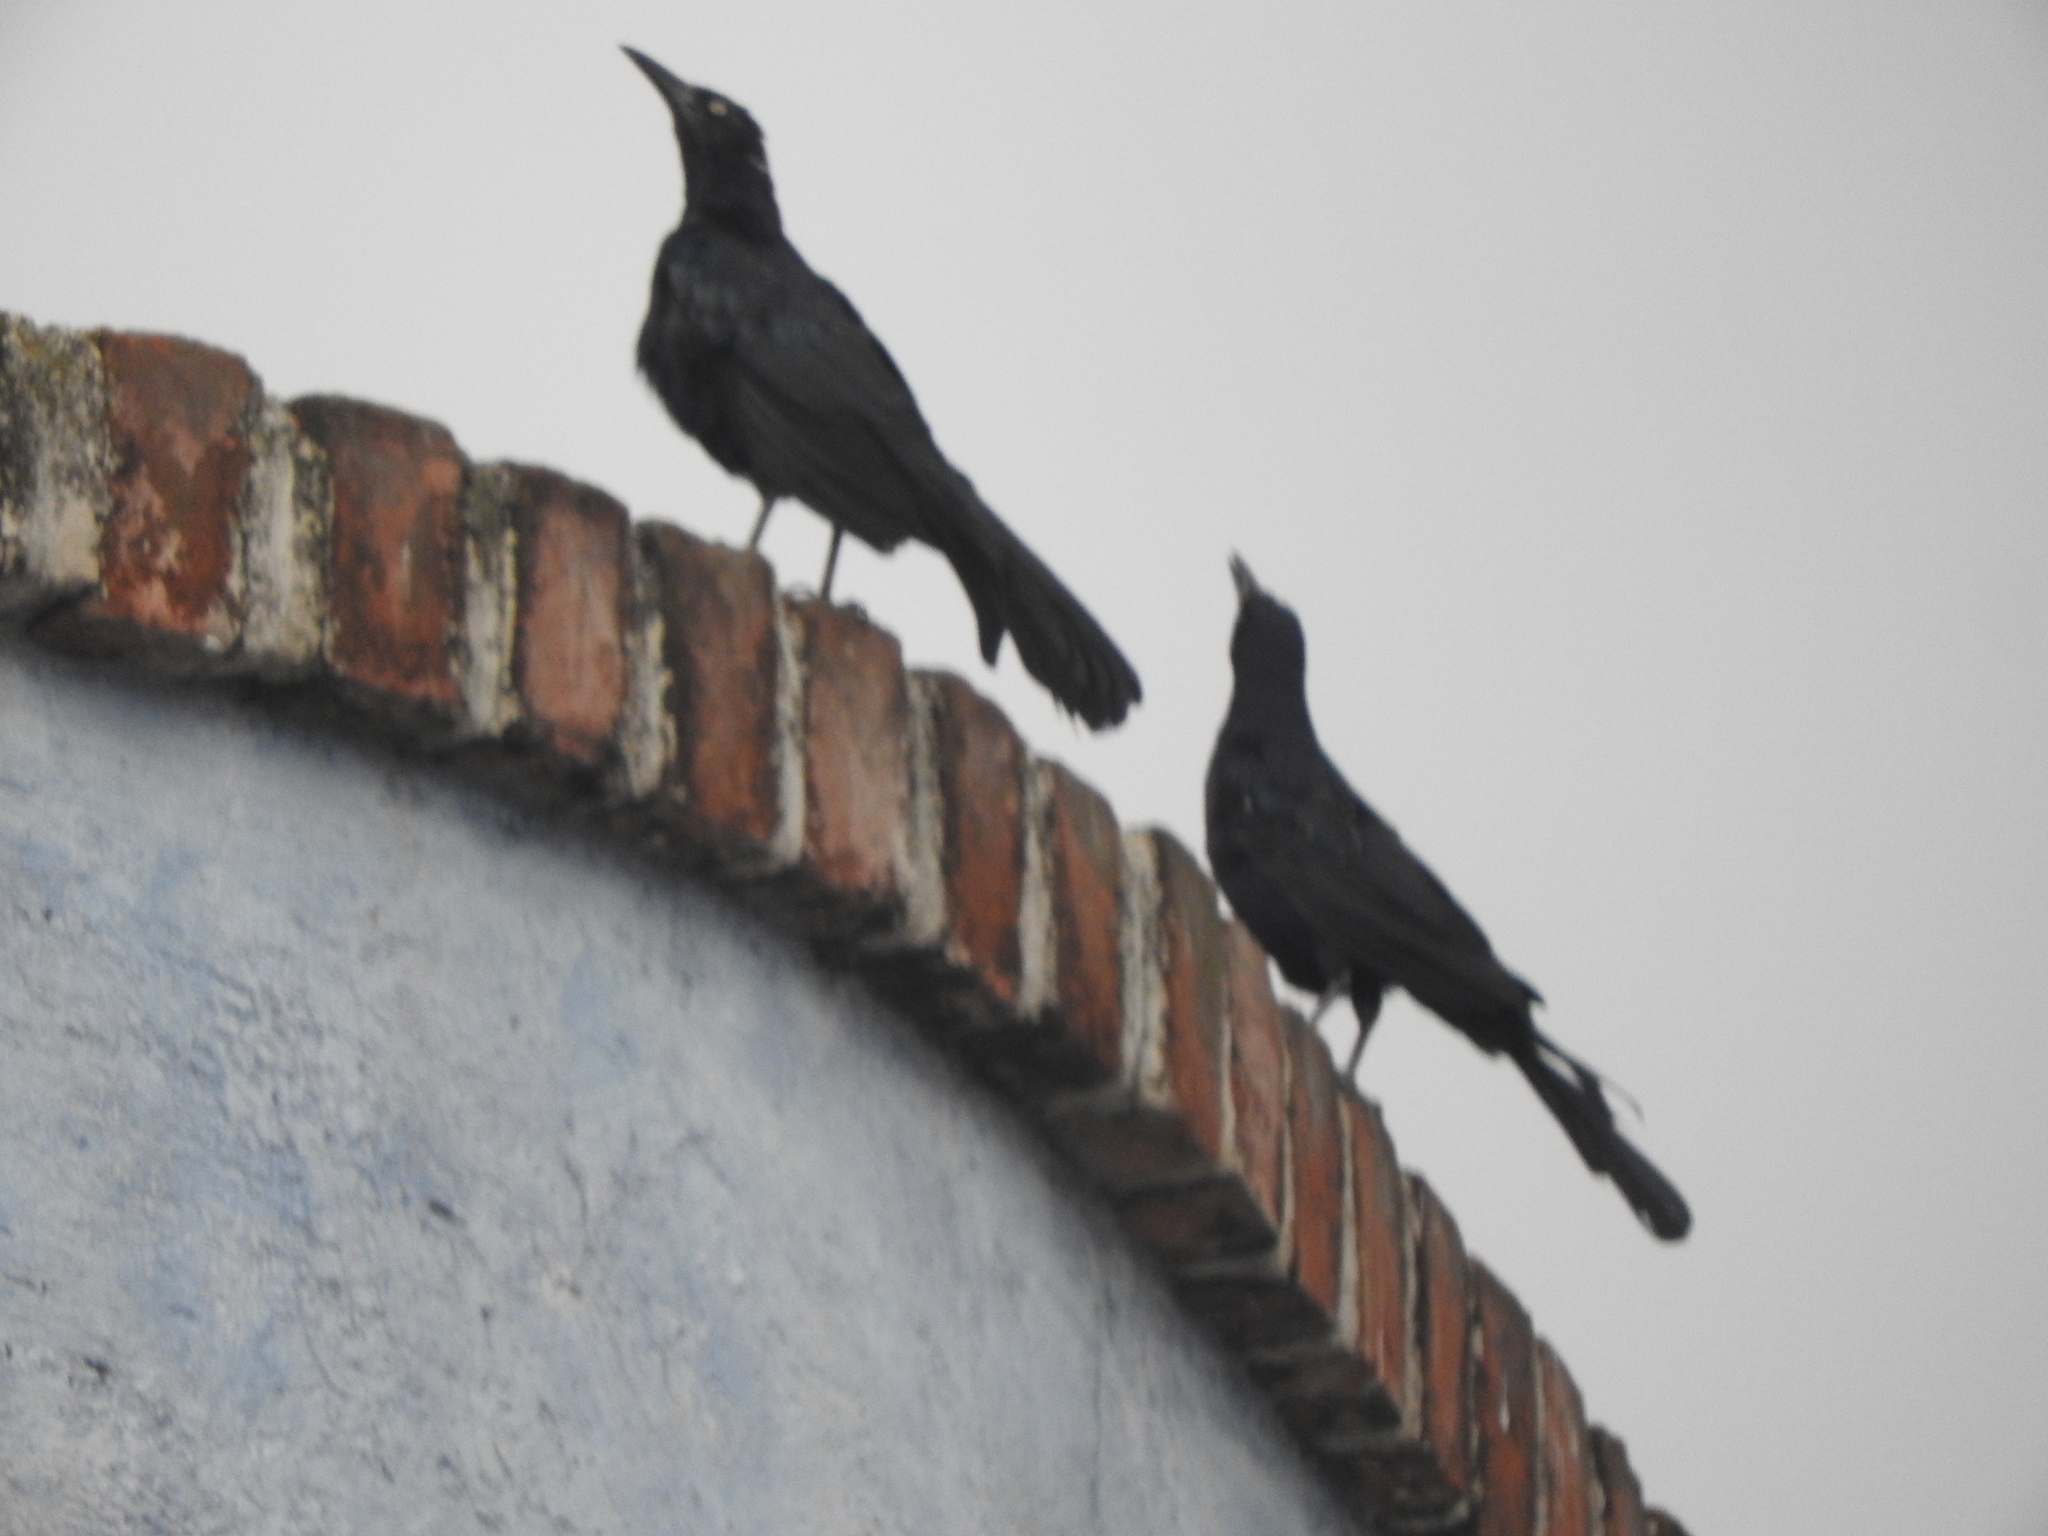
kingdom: Animalia
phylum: Chordata
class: Aves
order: Passeriformes
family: Icteridae
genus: Quiscalus
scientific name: Quiscalus mexicanus
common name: Great-tailed grackle
